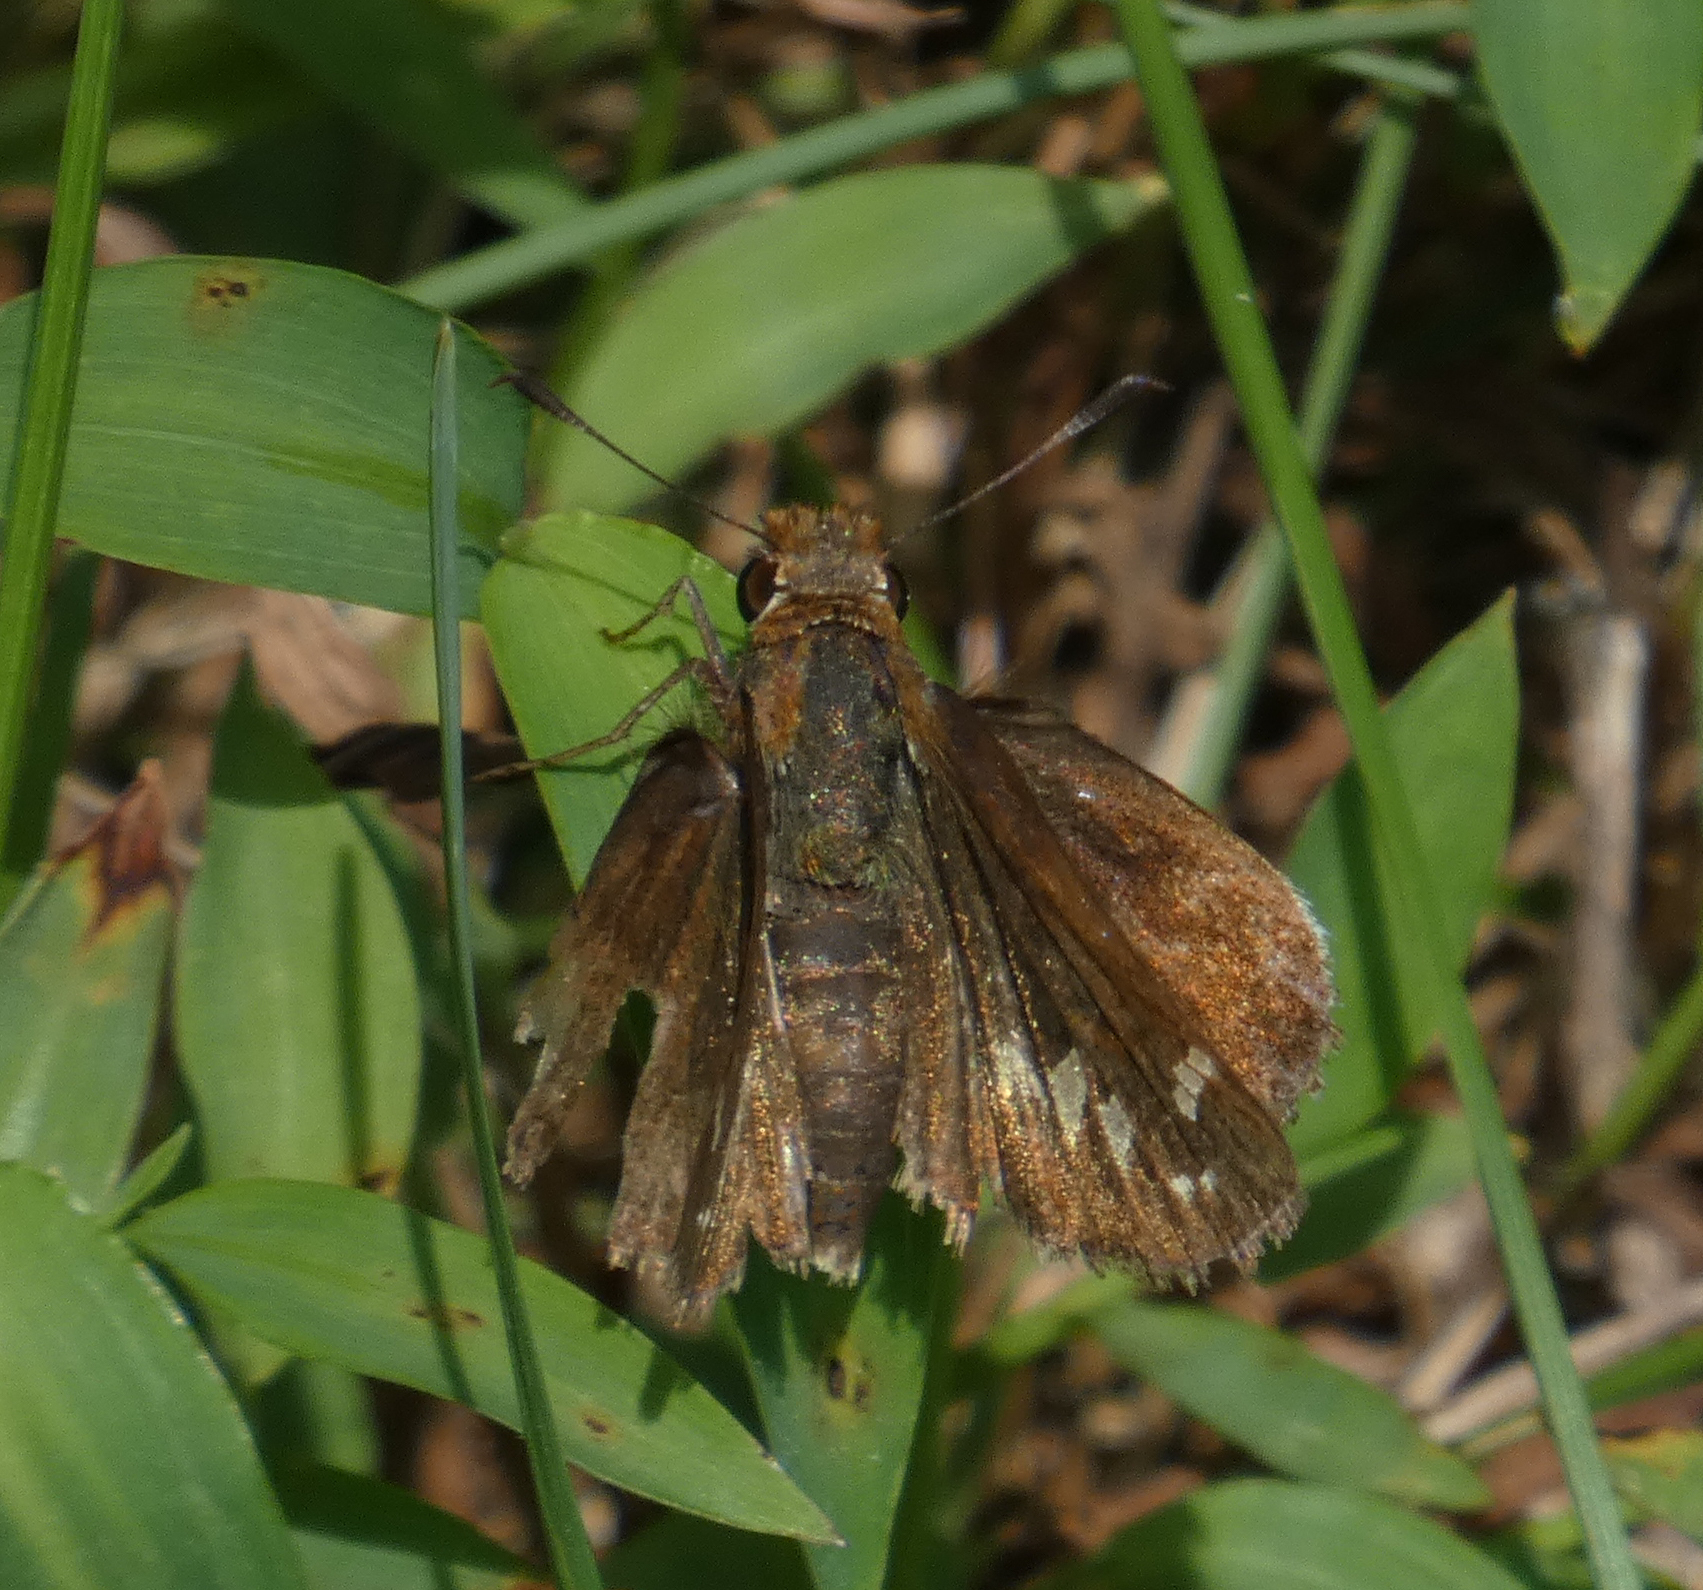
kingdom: Animalia
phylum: Arthropoda
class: Insecta
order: Lepidoptera
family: Hesperiidae
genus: Lon
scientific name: Lon zabulon
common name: Zabulon skipper
